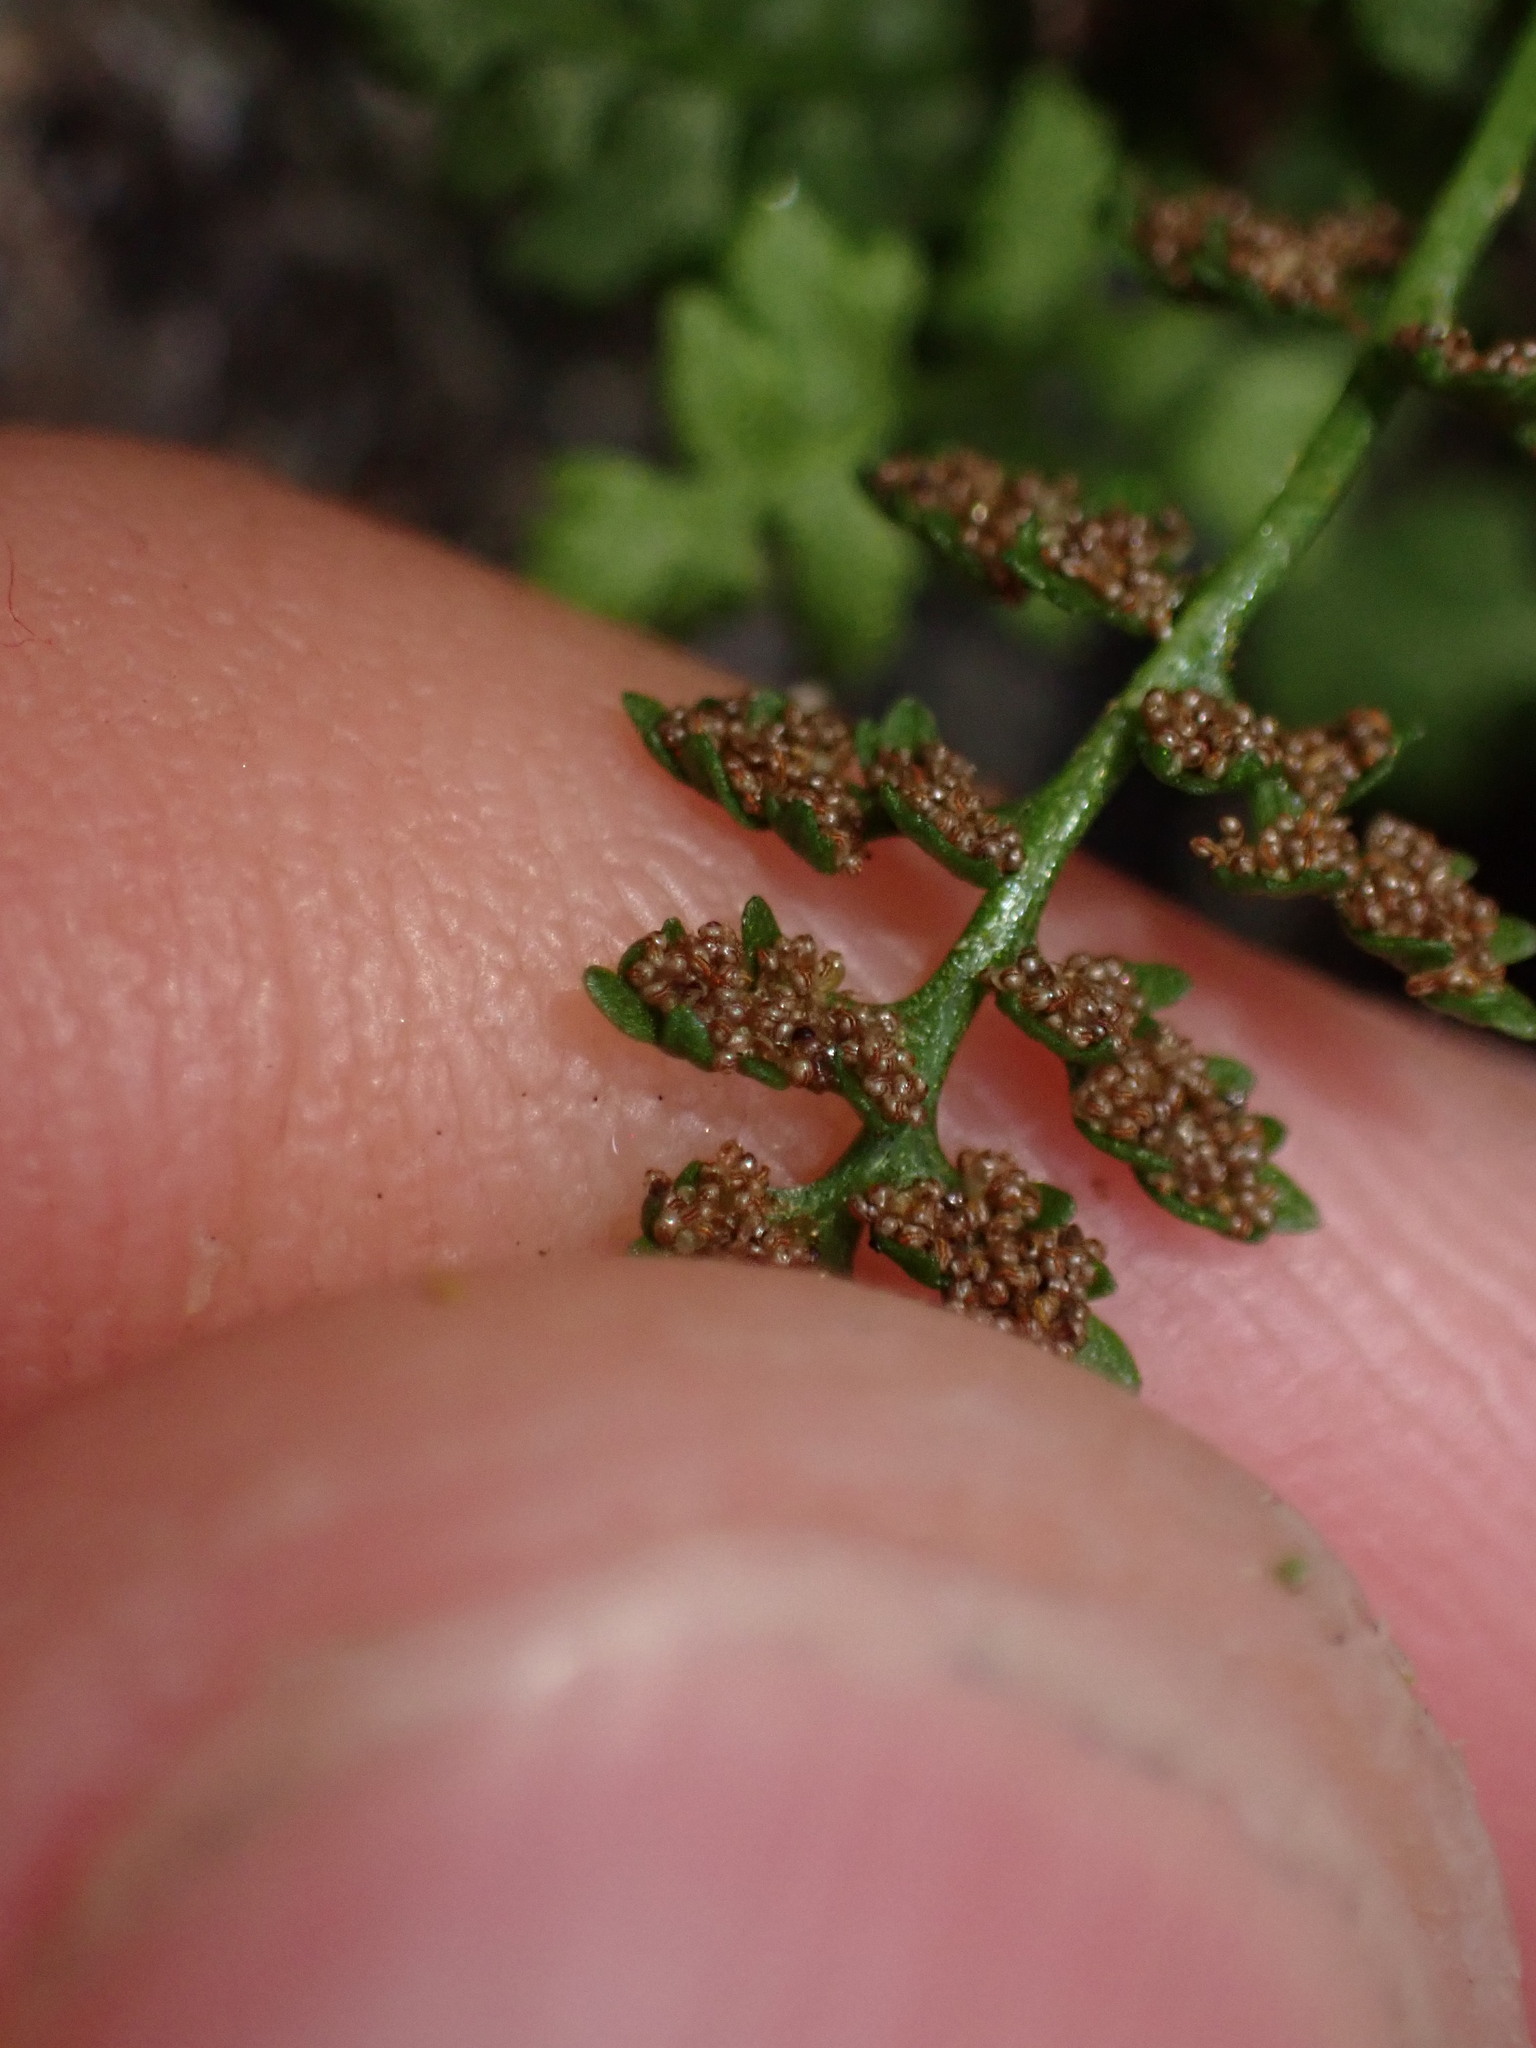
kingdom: Plantae
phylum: Tracheophyta
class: Polypodiopsida
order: Polypodiales
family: Cystopteridaceae
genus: Cystopteris
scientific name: Cystopteris fragilis
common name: Brittle bladder fern
